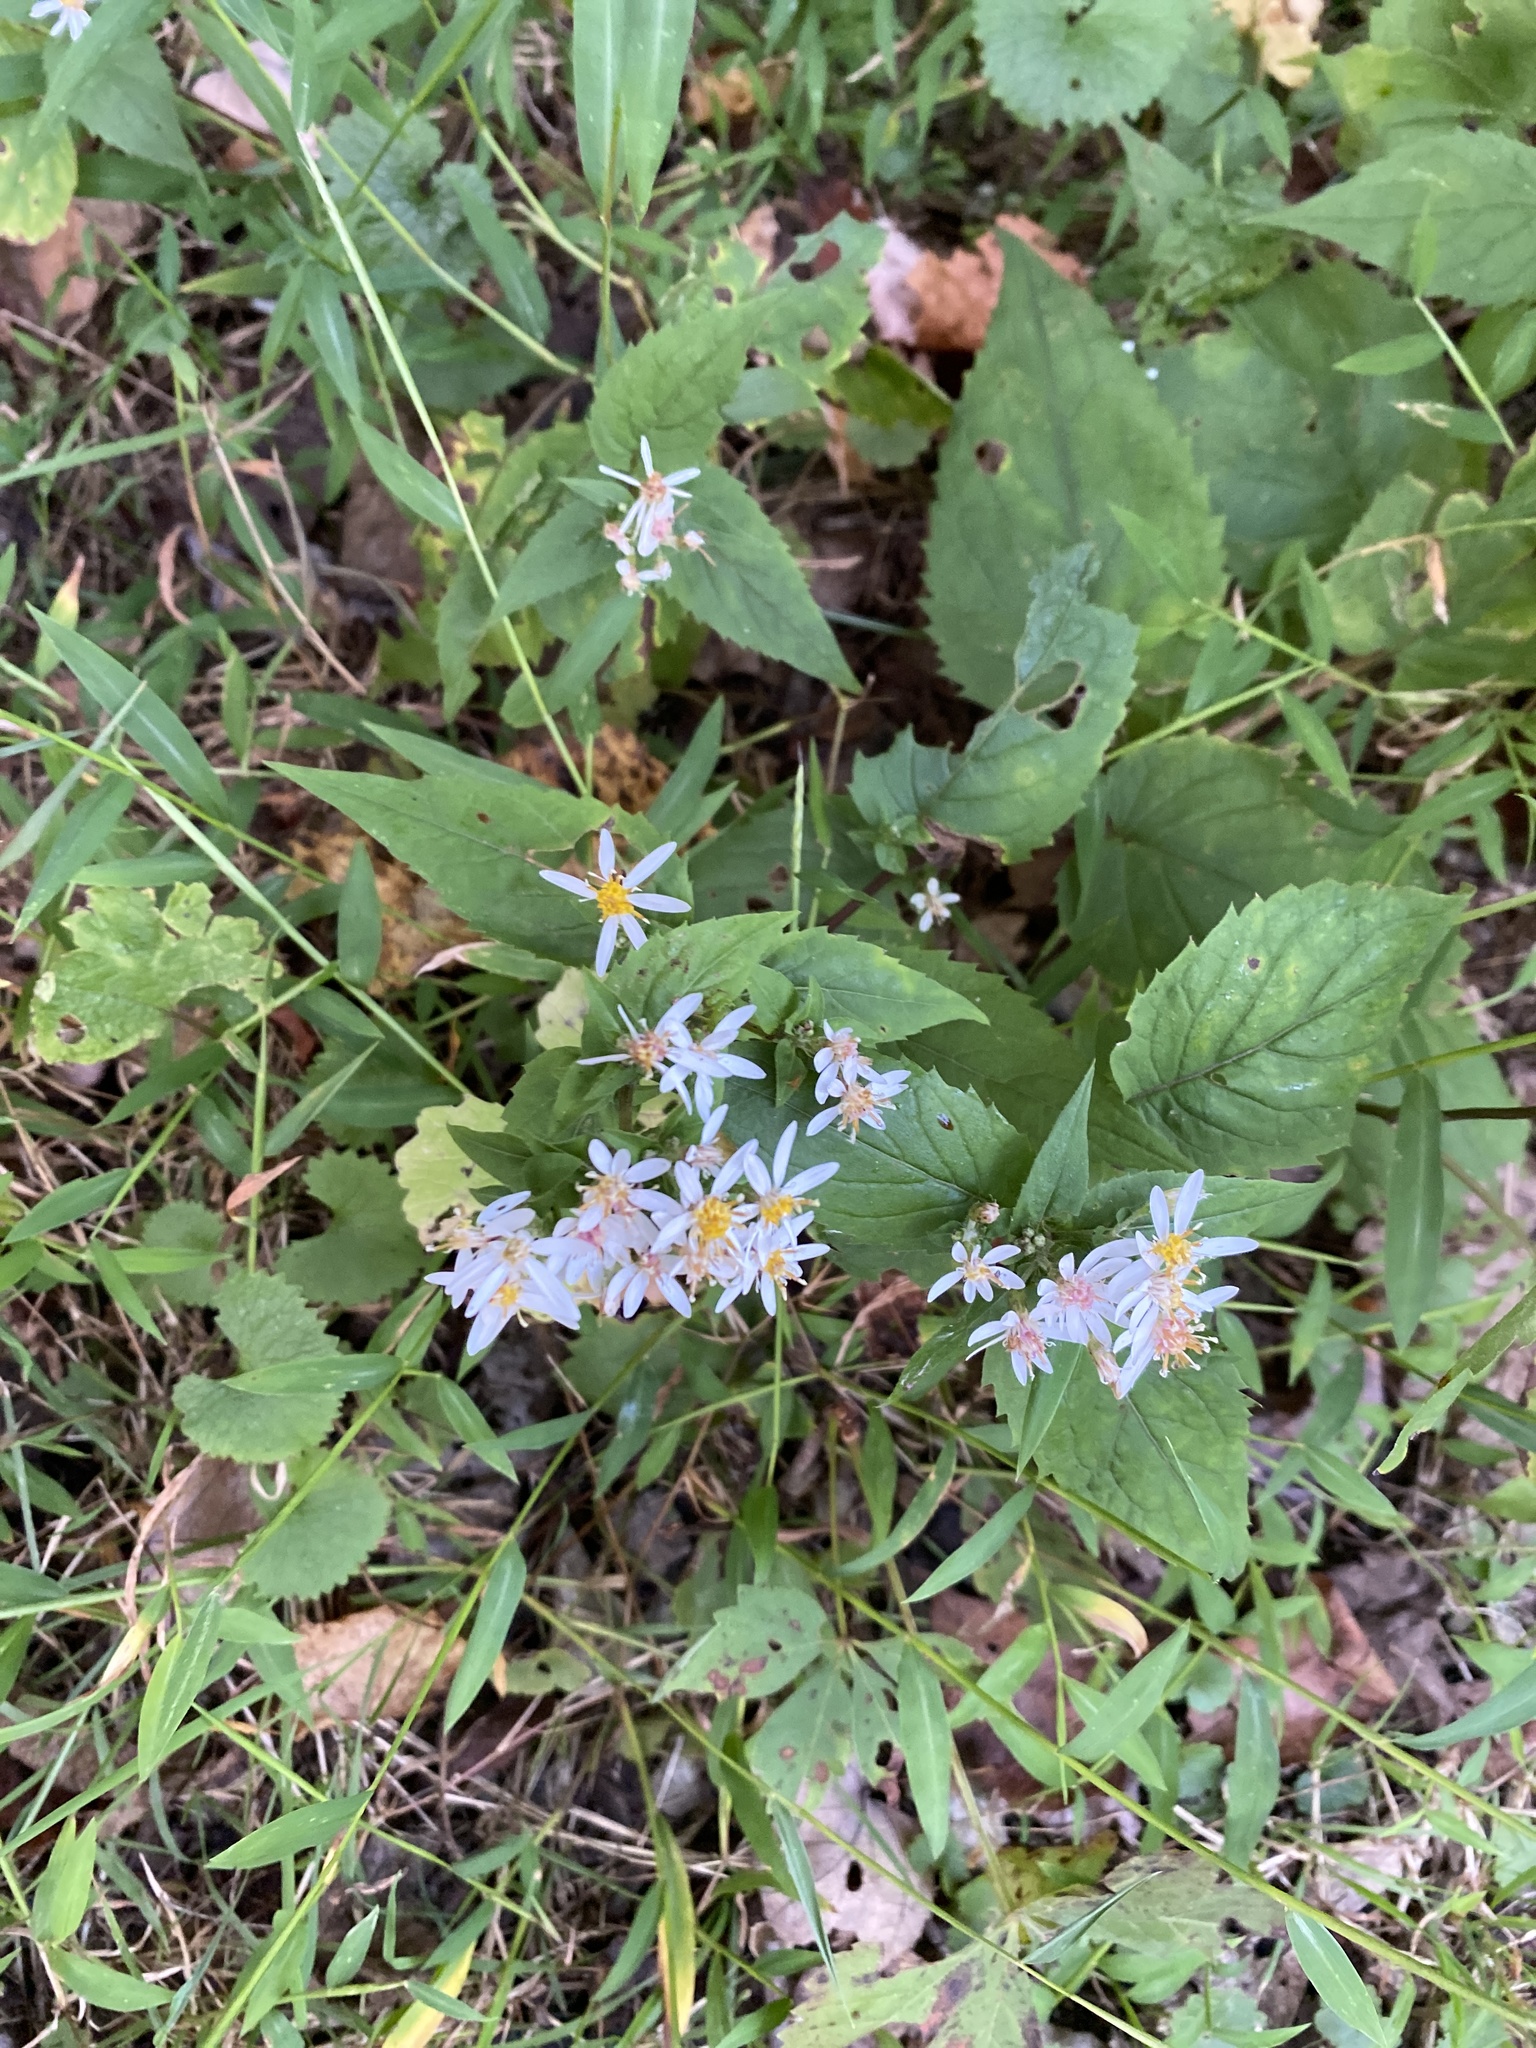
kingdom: Plantae
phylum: Tracheophyta
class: Magnoliopsida
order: Asterales
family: Asteraceae
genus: Eurybia
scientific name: Eurybia divaricata
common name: White wood aster
